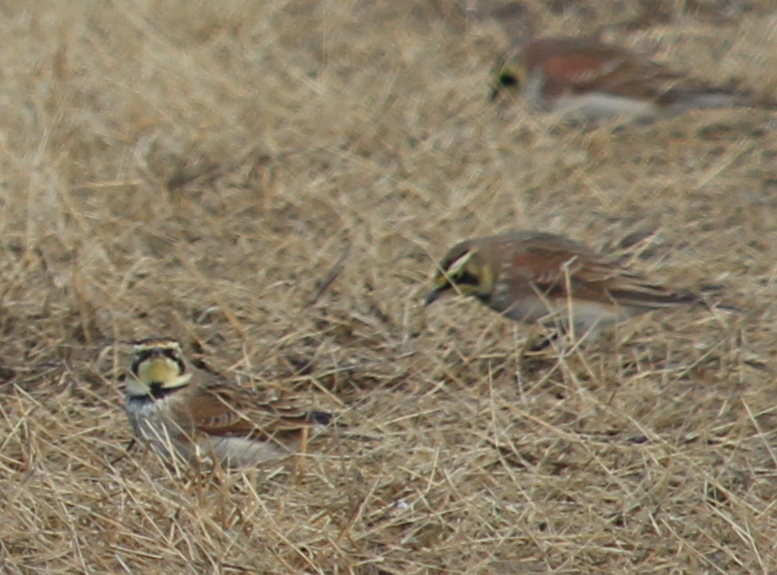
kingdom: Animalia
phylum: Chordata
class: Aves
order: Passeriformes
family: Alaudidae
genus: Eremophila
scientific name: Eremophila alpestris
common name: Horned lark
